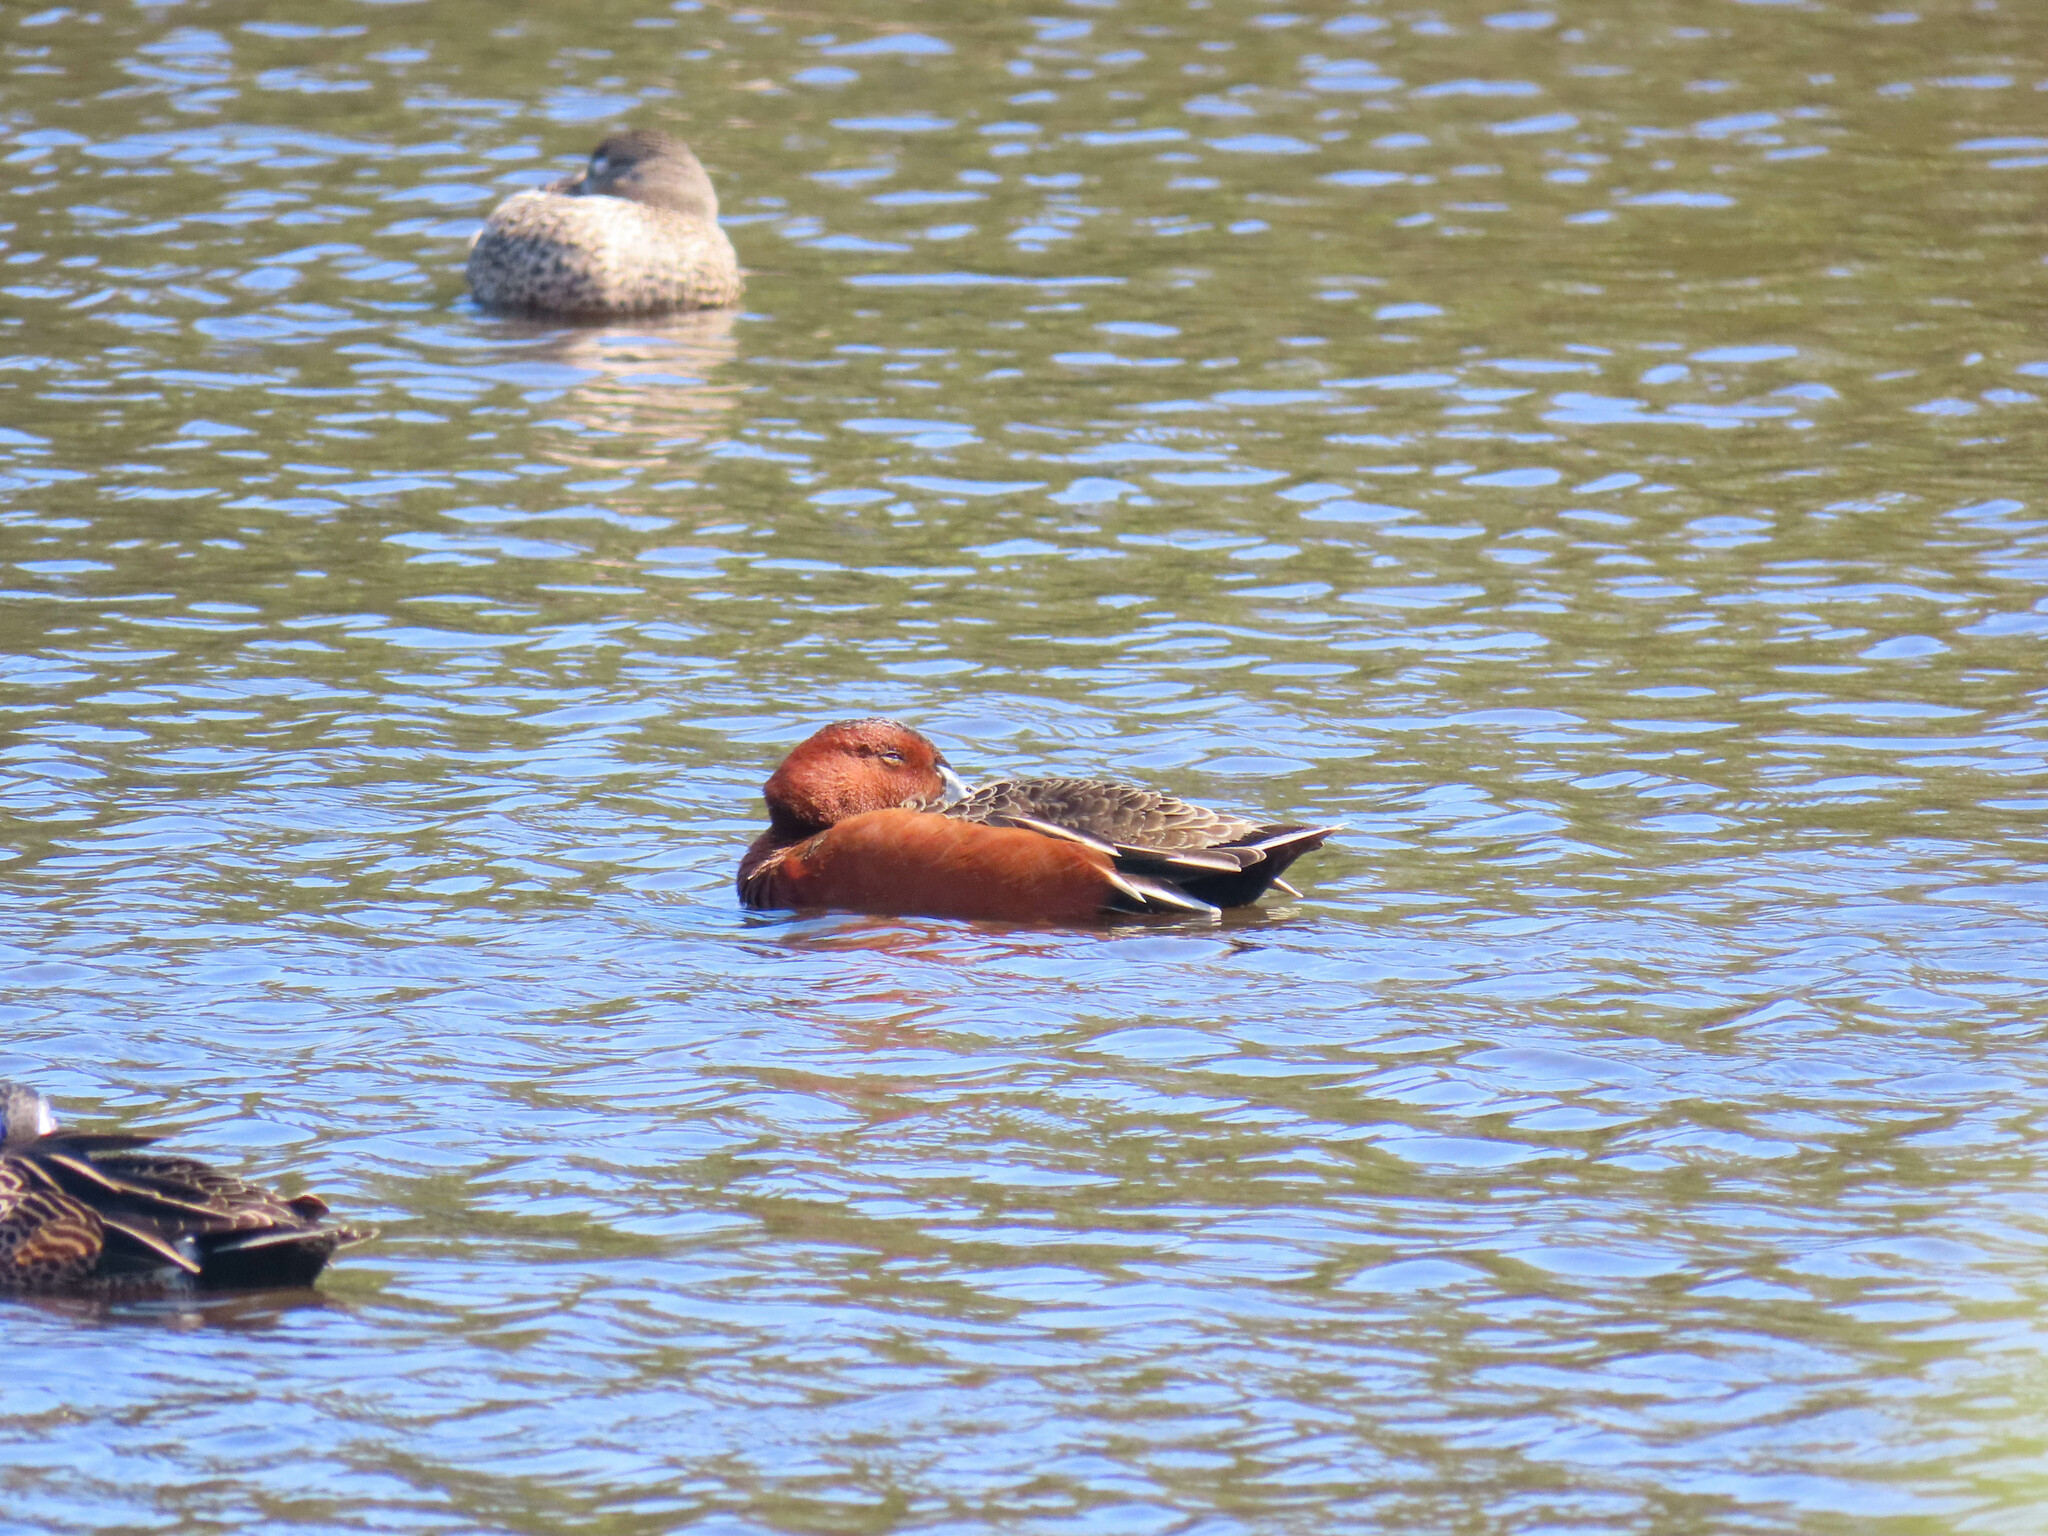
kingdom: Animalia
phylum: Chordata
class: Aves
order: Anseriformes
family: Anatidae
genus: Spatula
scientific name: Spatula cyanoptera
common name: Cinnamon teal
